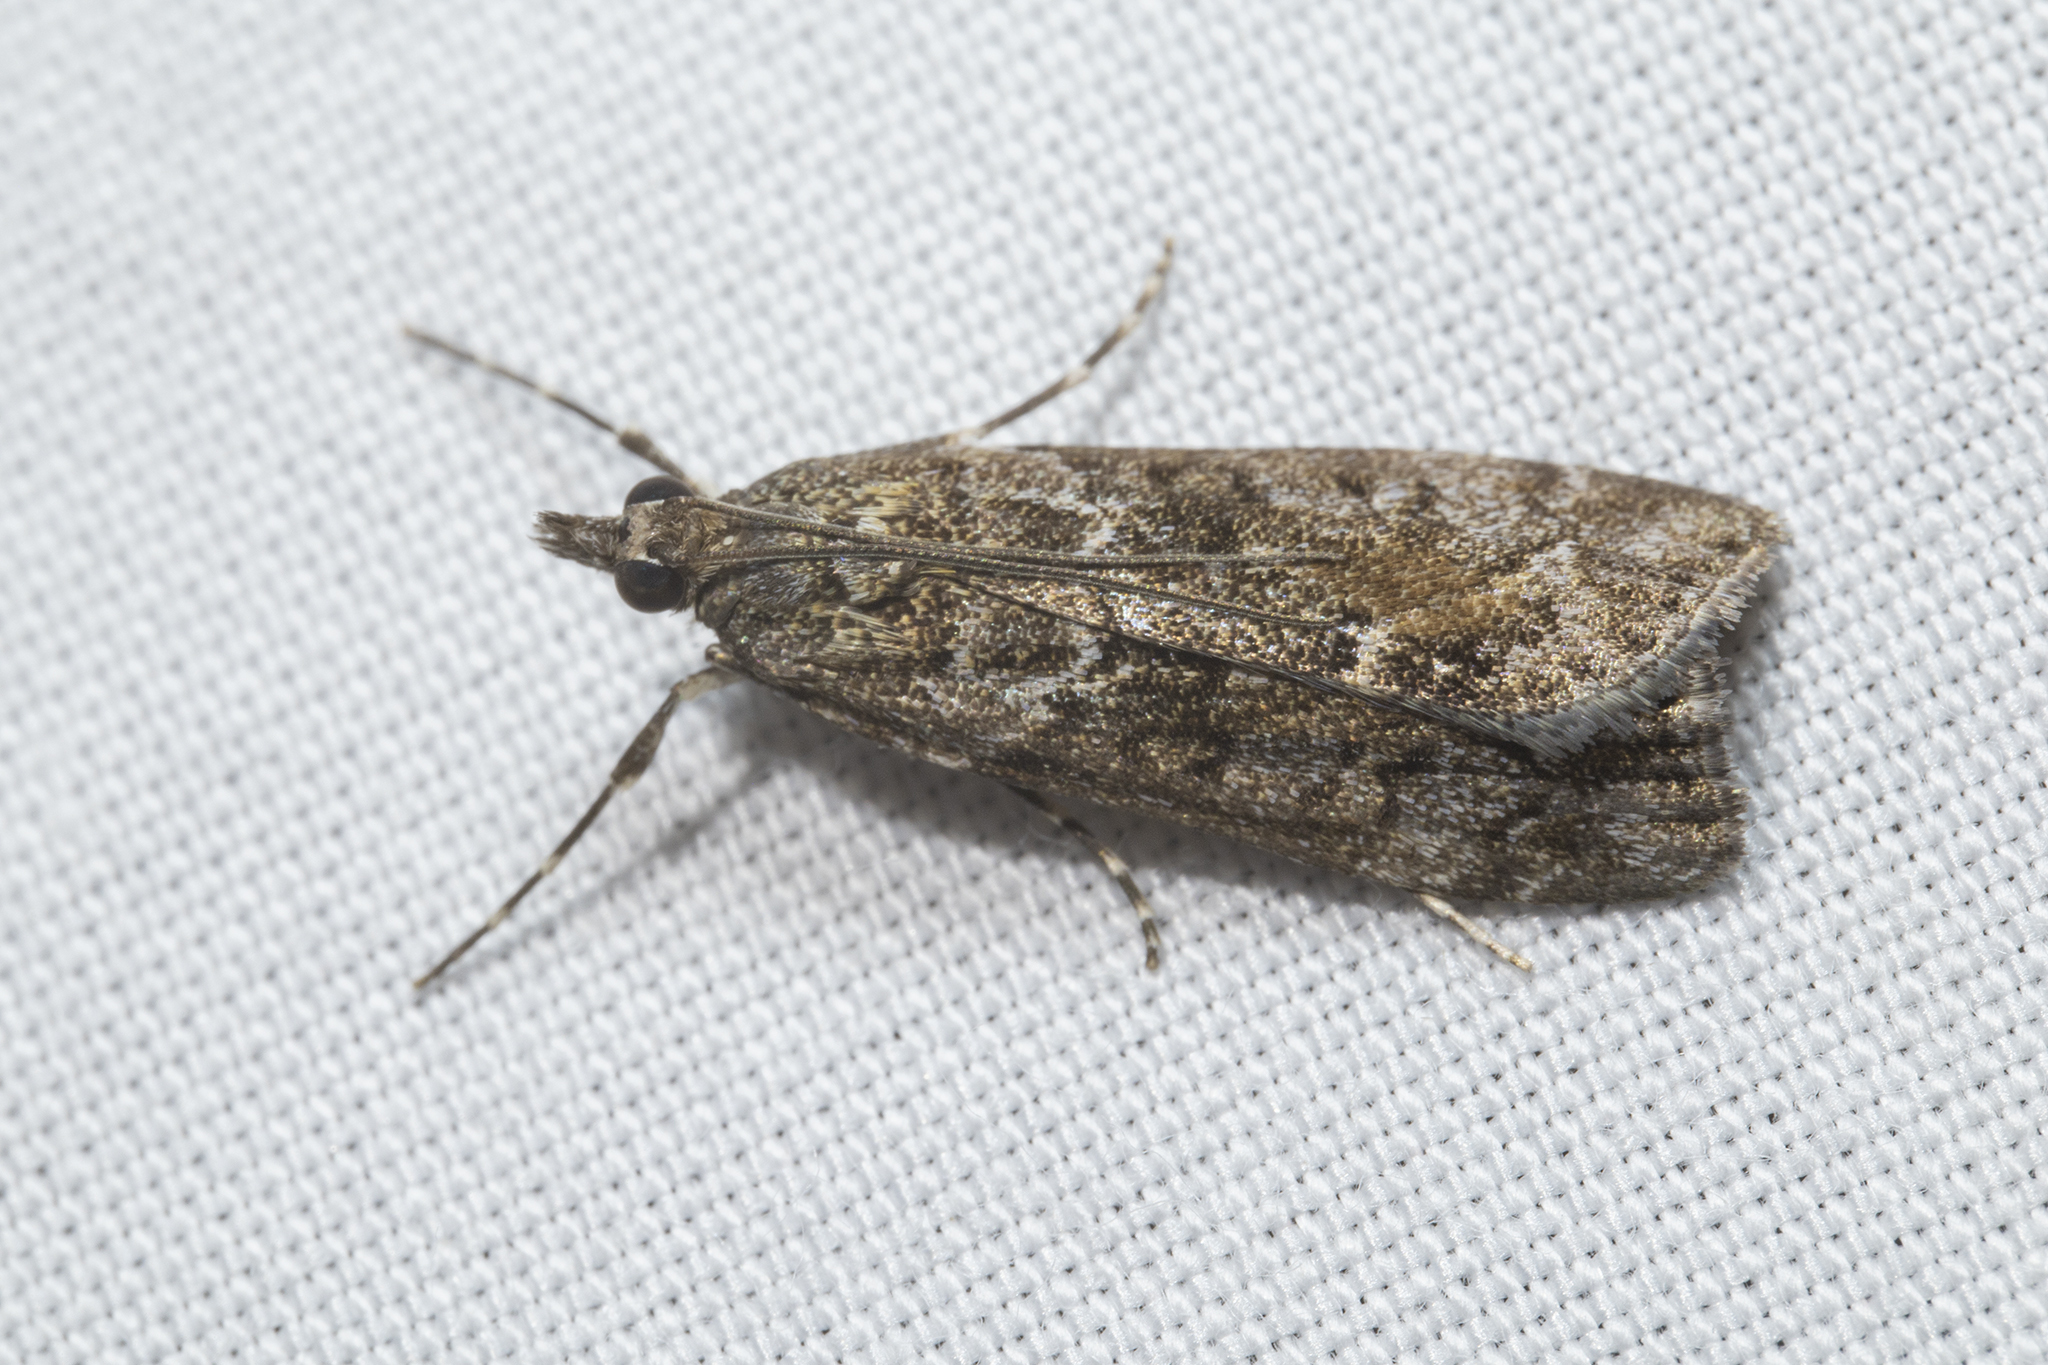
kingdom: Animalia
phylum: Arthropoda
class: Insecta
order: Lepidoptera
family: Crambidae
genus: Eudonia
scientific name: Eudonia submarginalis
